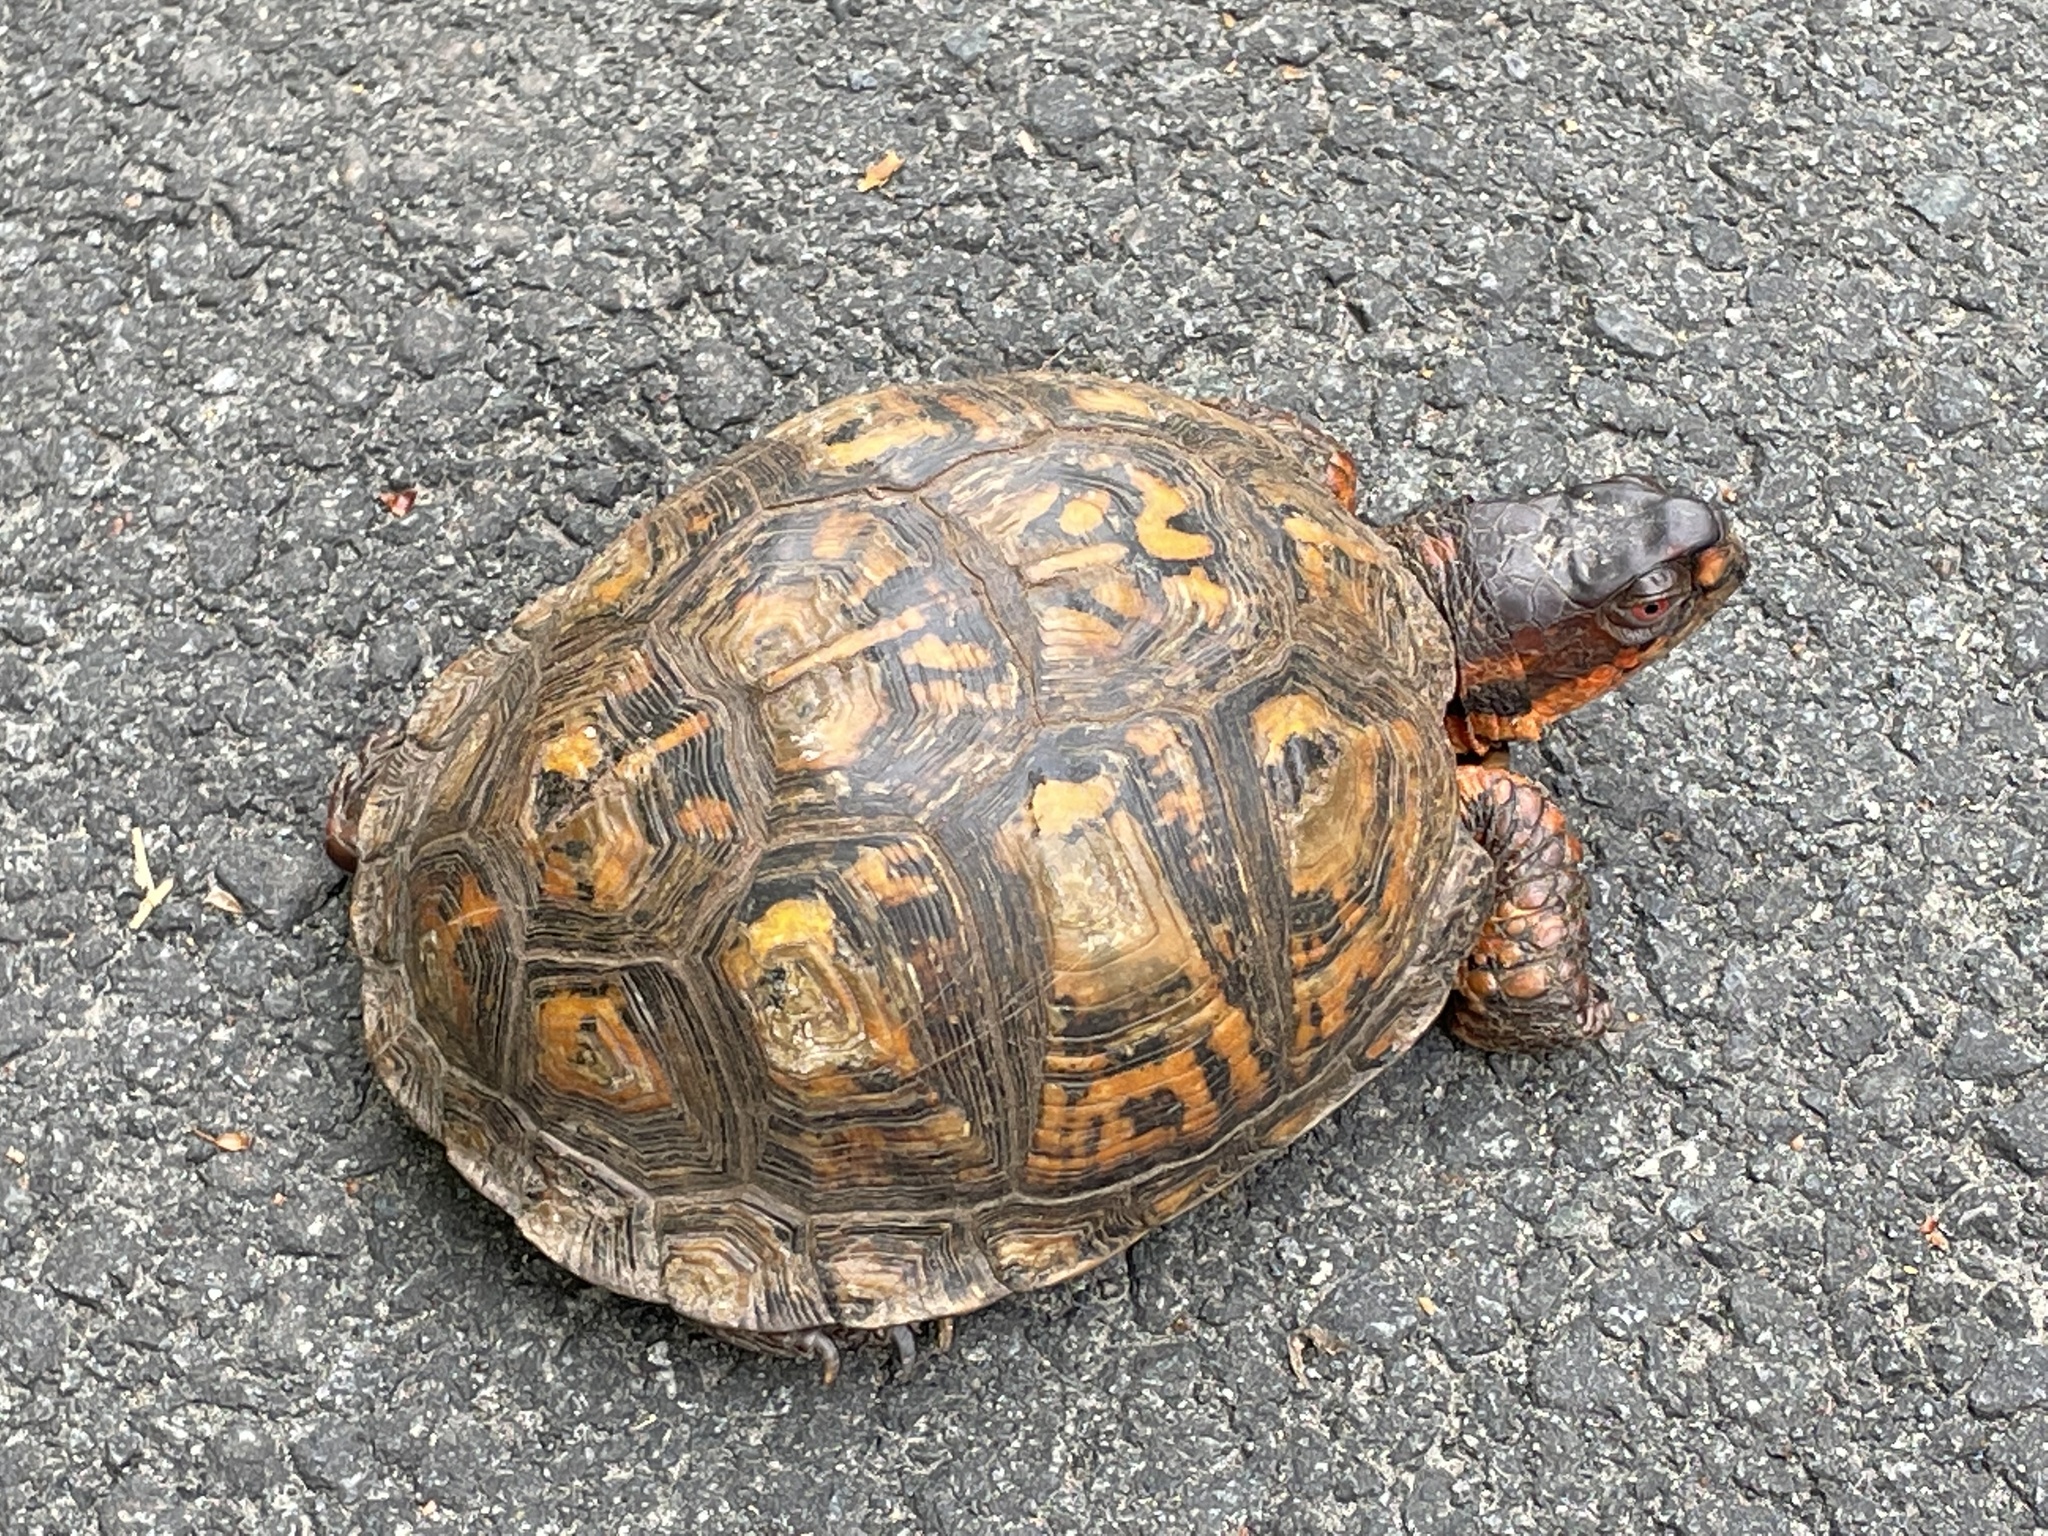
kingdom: Animalia
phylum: Chordata
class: Testudines
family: Emydidae
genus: Terrapene
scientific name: Terrapene carolina
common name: Common box turtle
